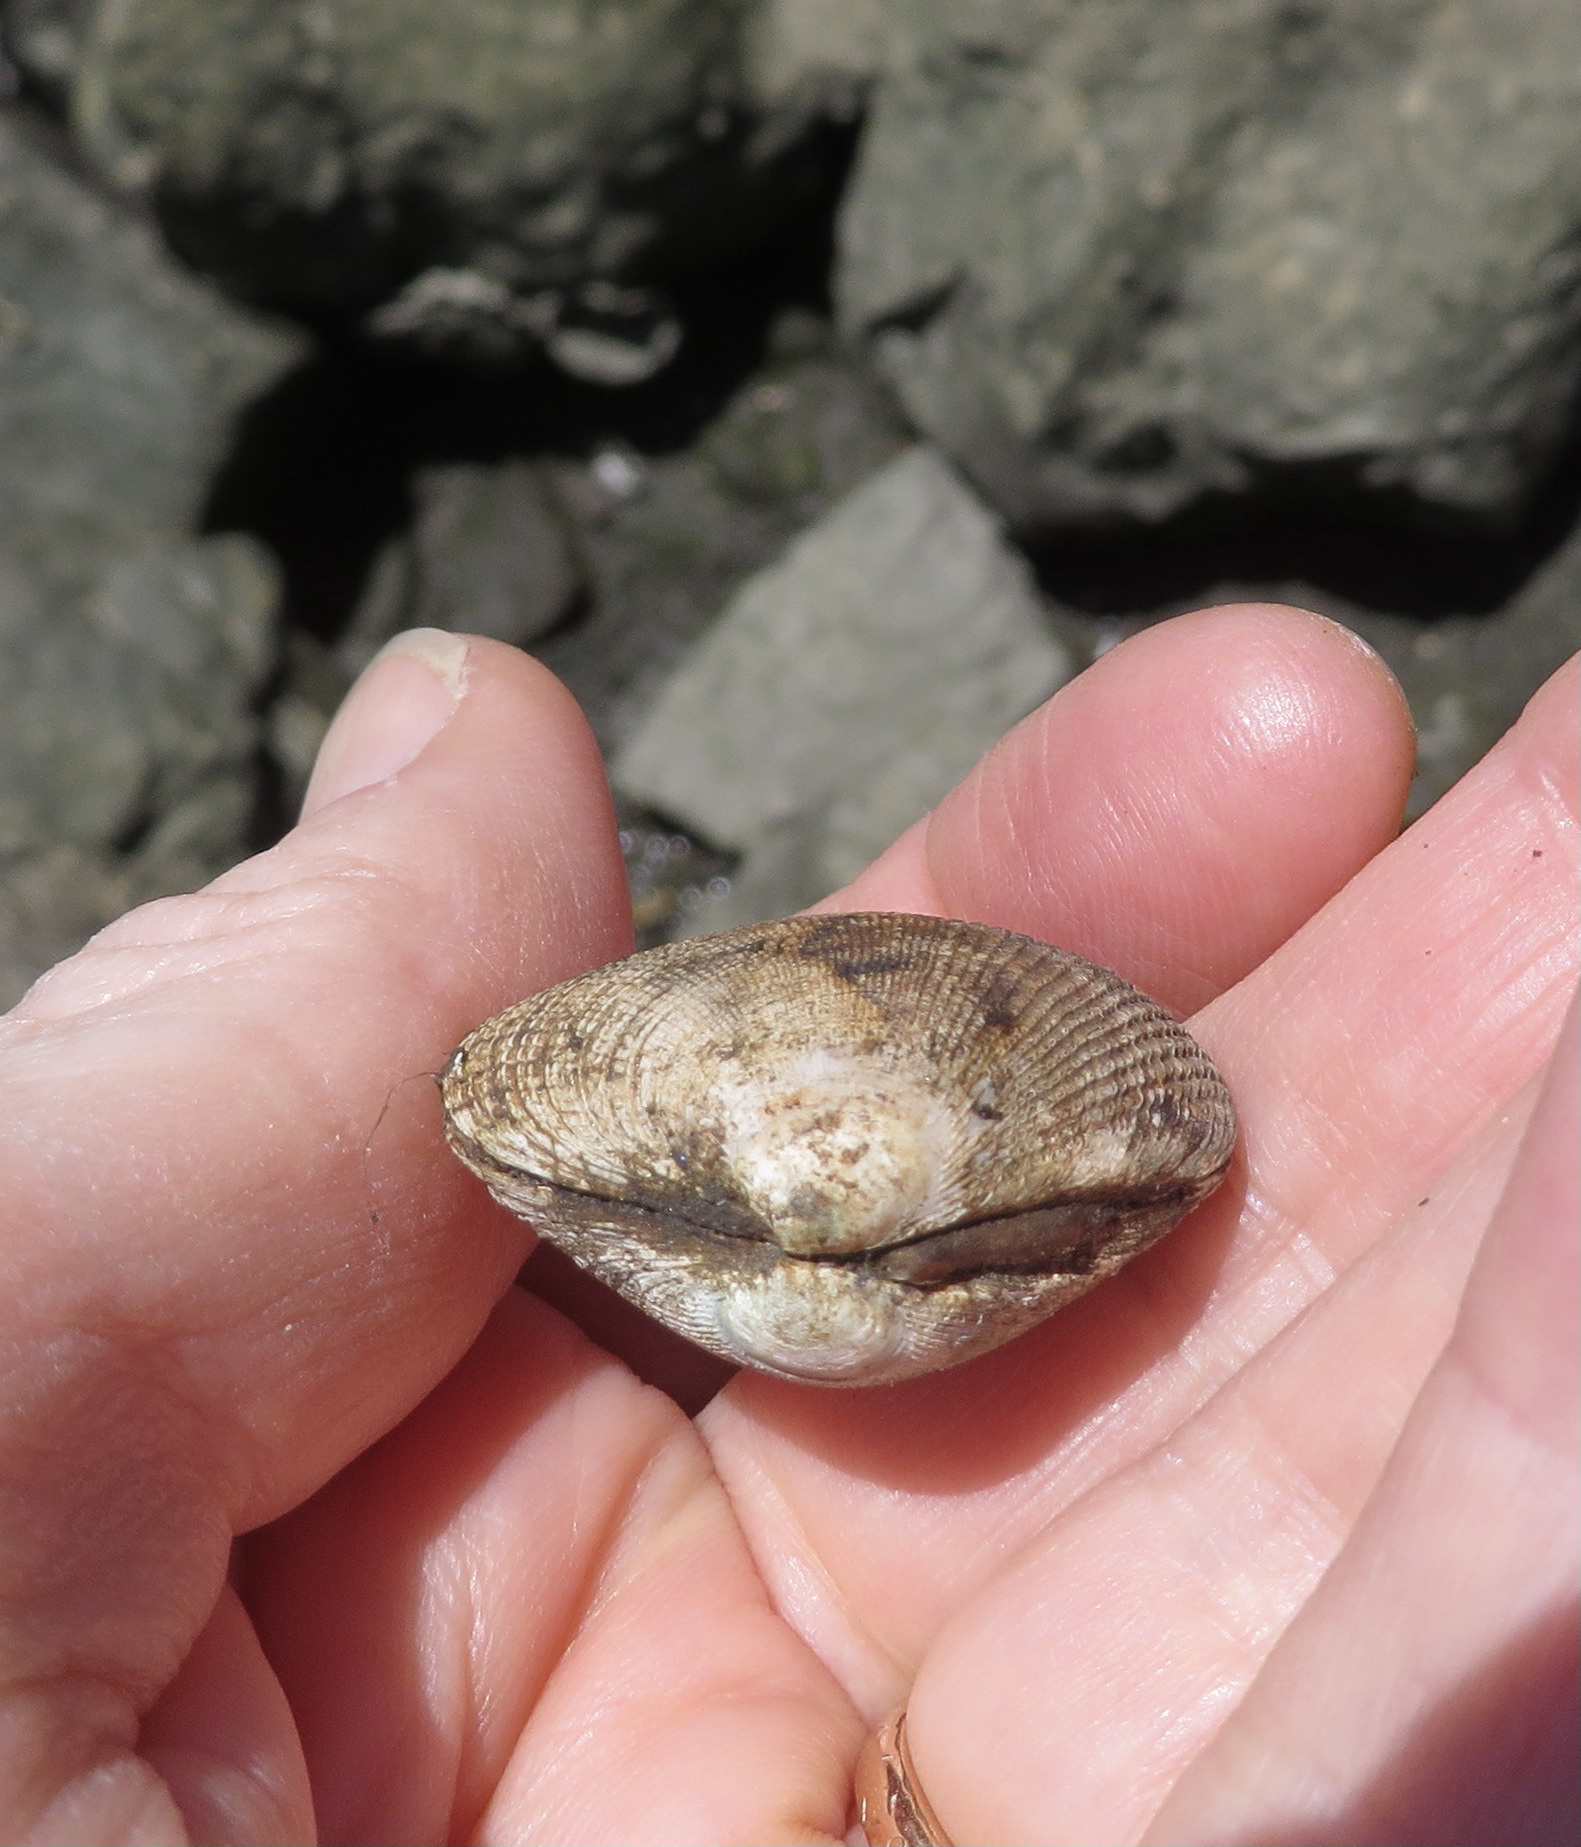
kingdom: Animalia
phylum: Mollusca
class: Bivalvia
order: Venerida
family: Veneridae
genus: Ruditapes
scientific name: Ruditapes philippinarum
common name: Manila clam
